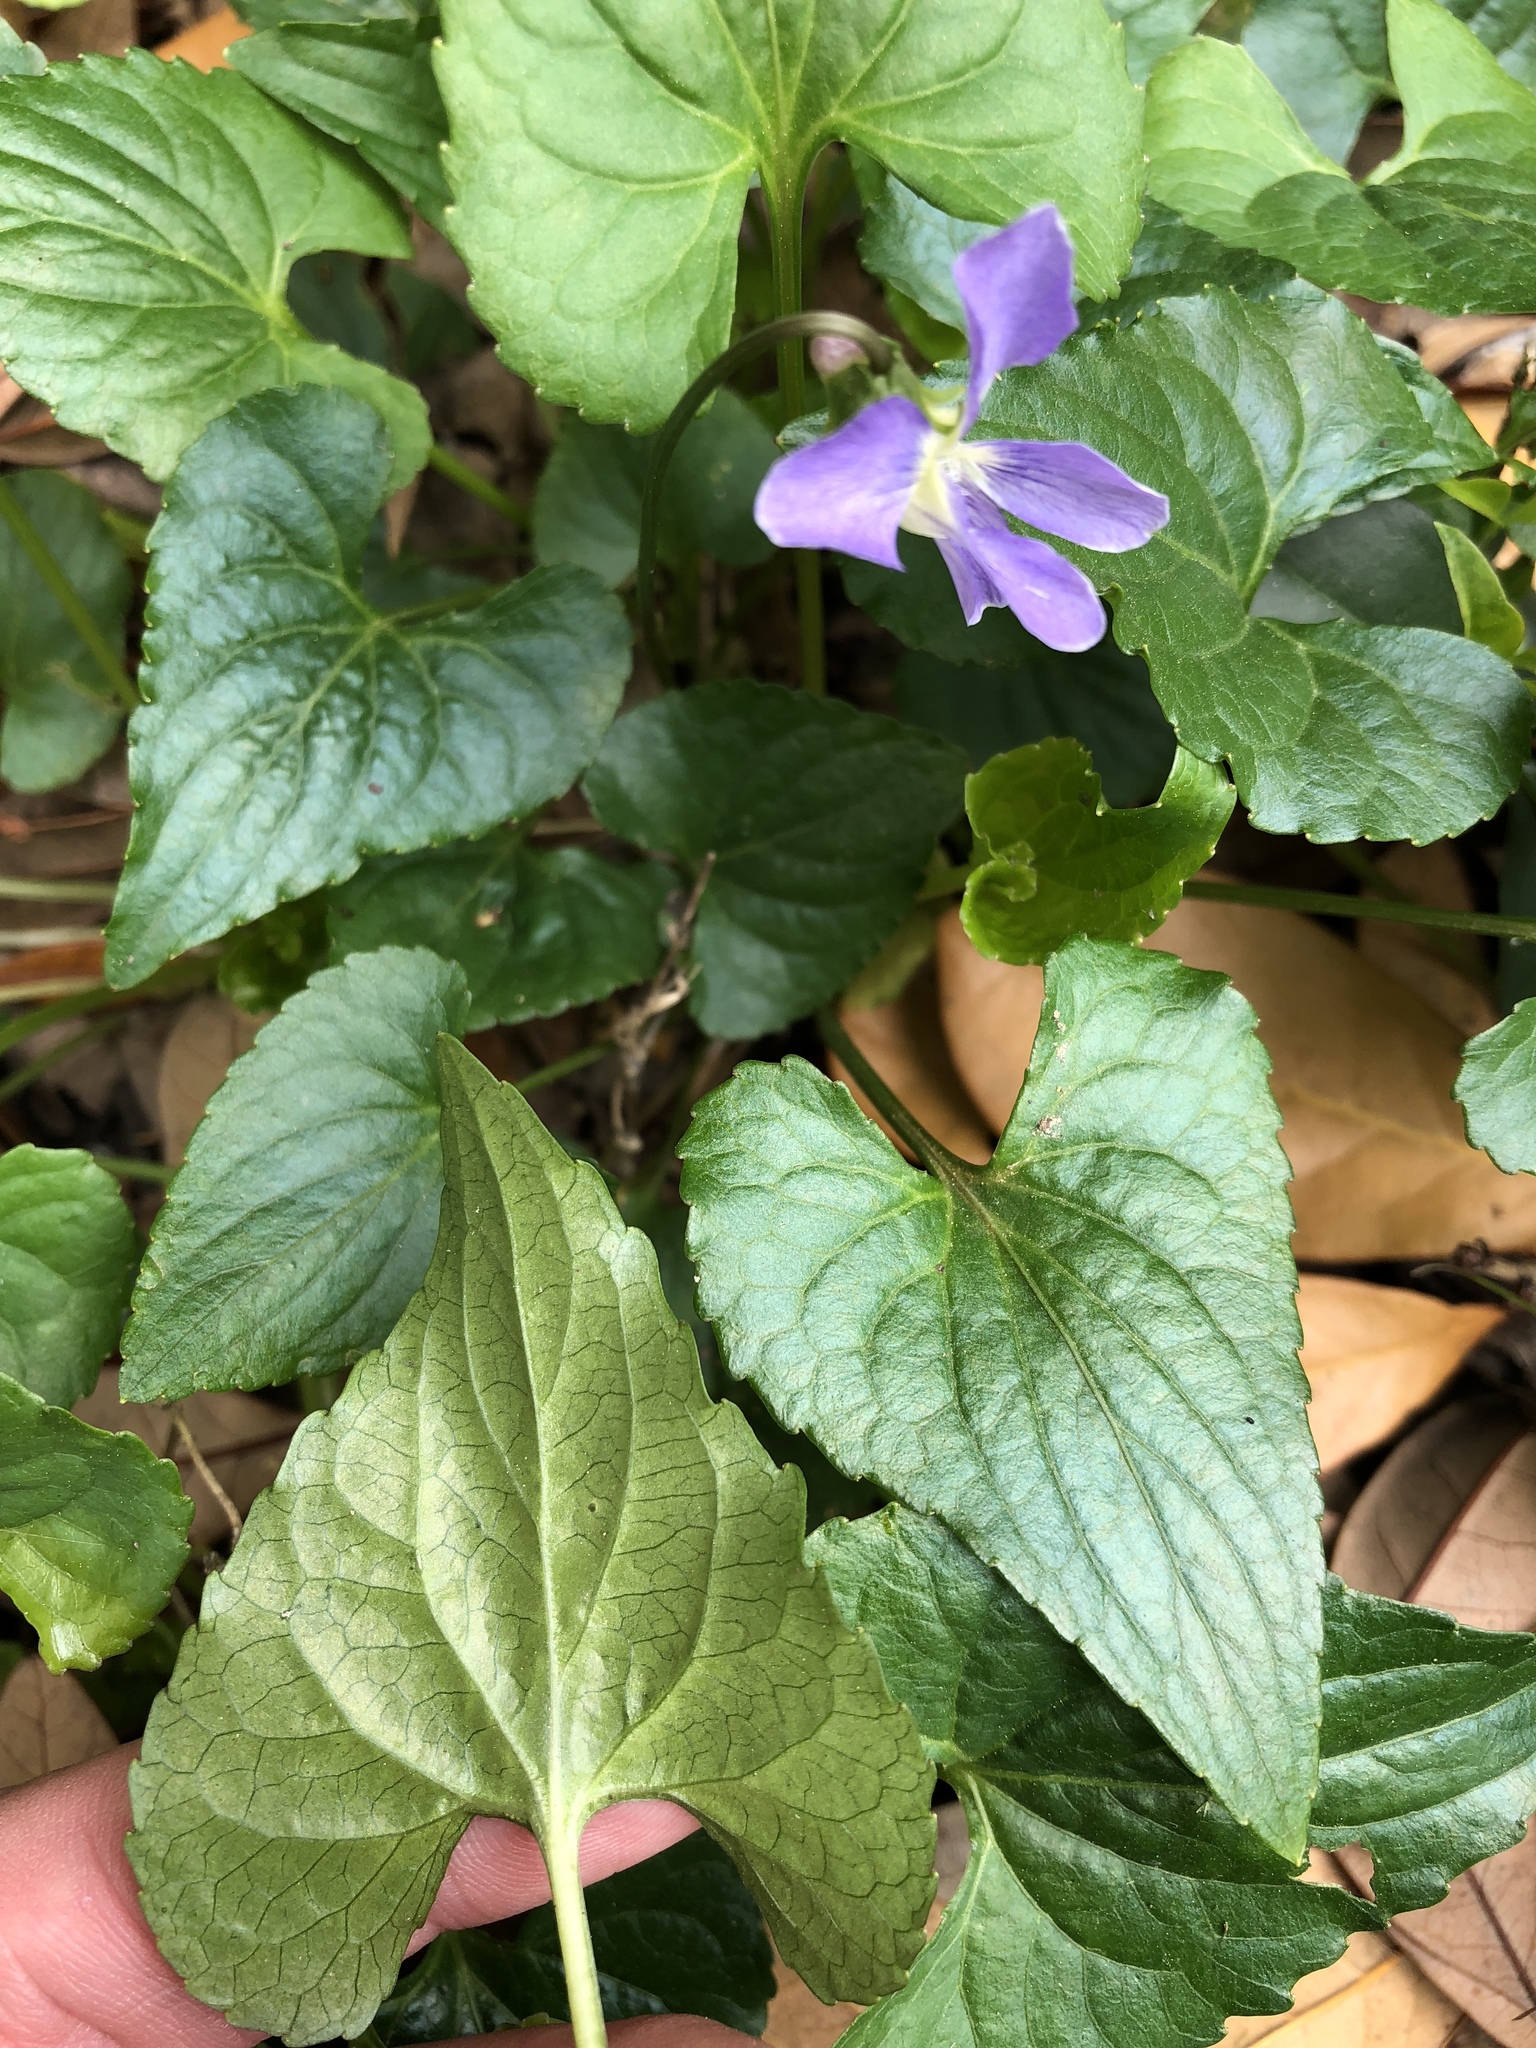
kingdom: Plantae
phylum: Tracheophyta
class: Magnoliopsida
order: Malpighiales
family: Violaceae
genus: Viola
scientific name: Viola missouriensis
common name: Missouri violet
